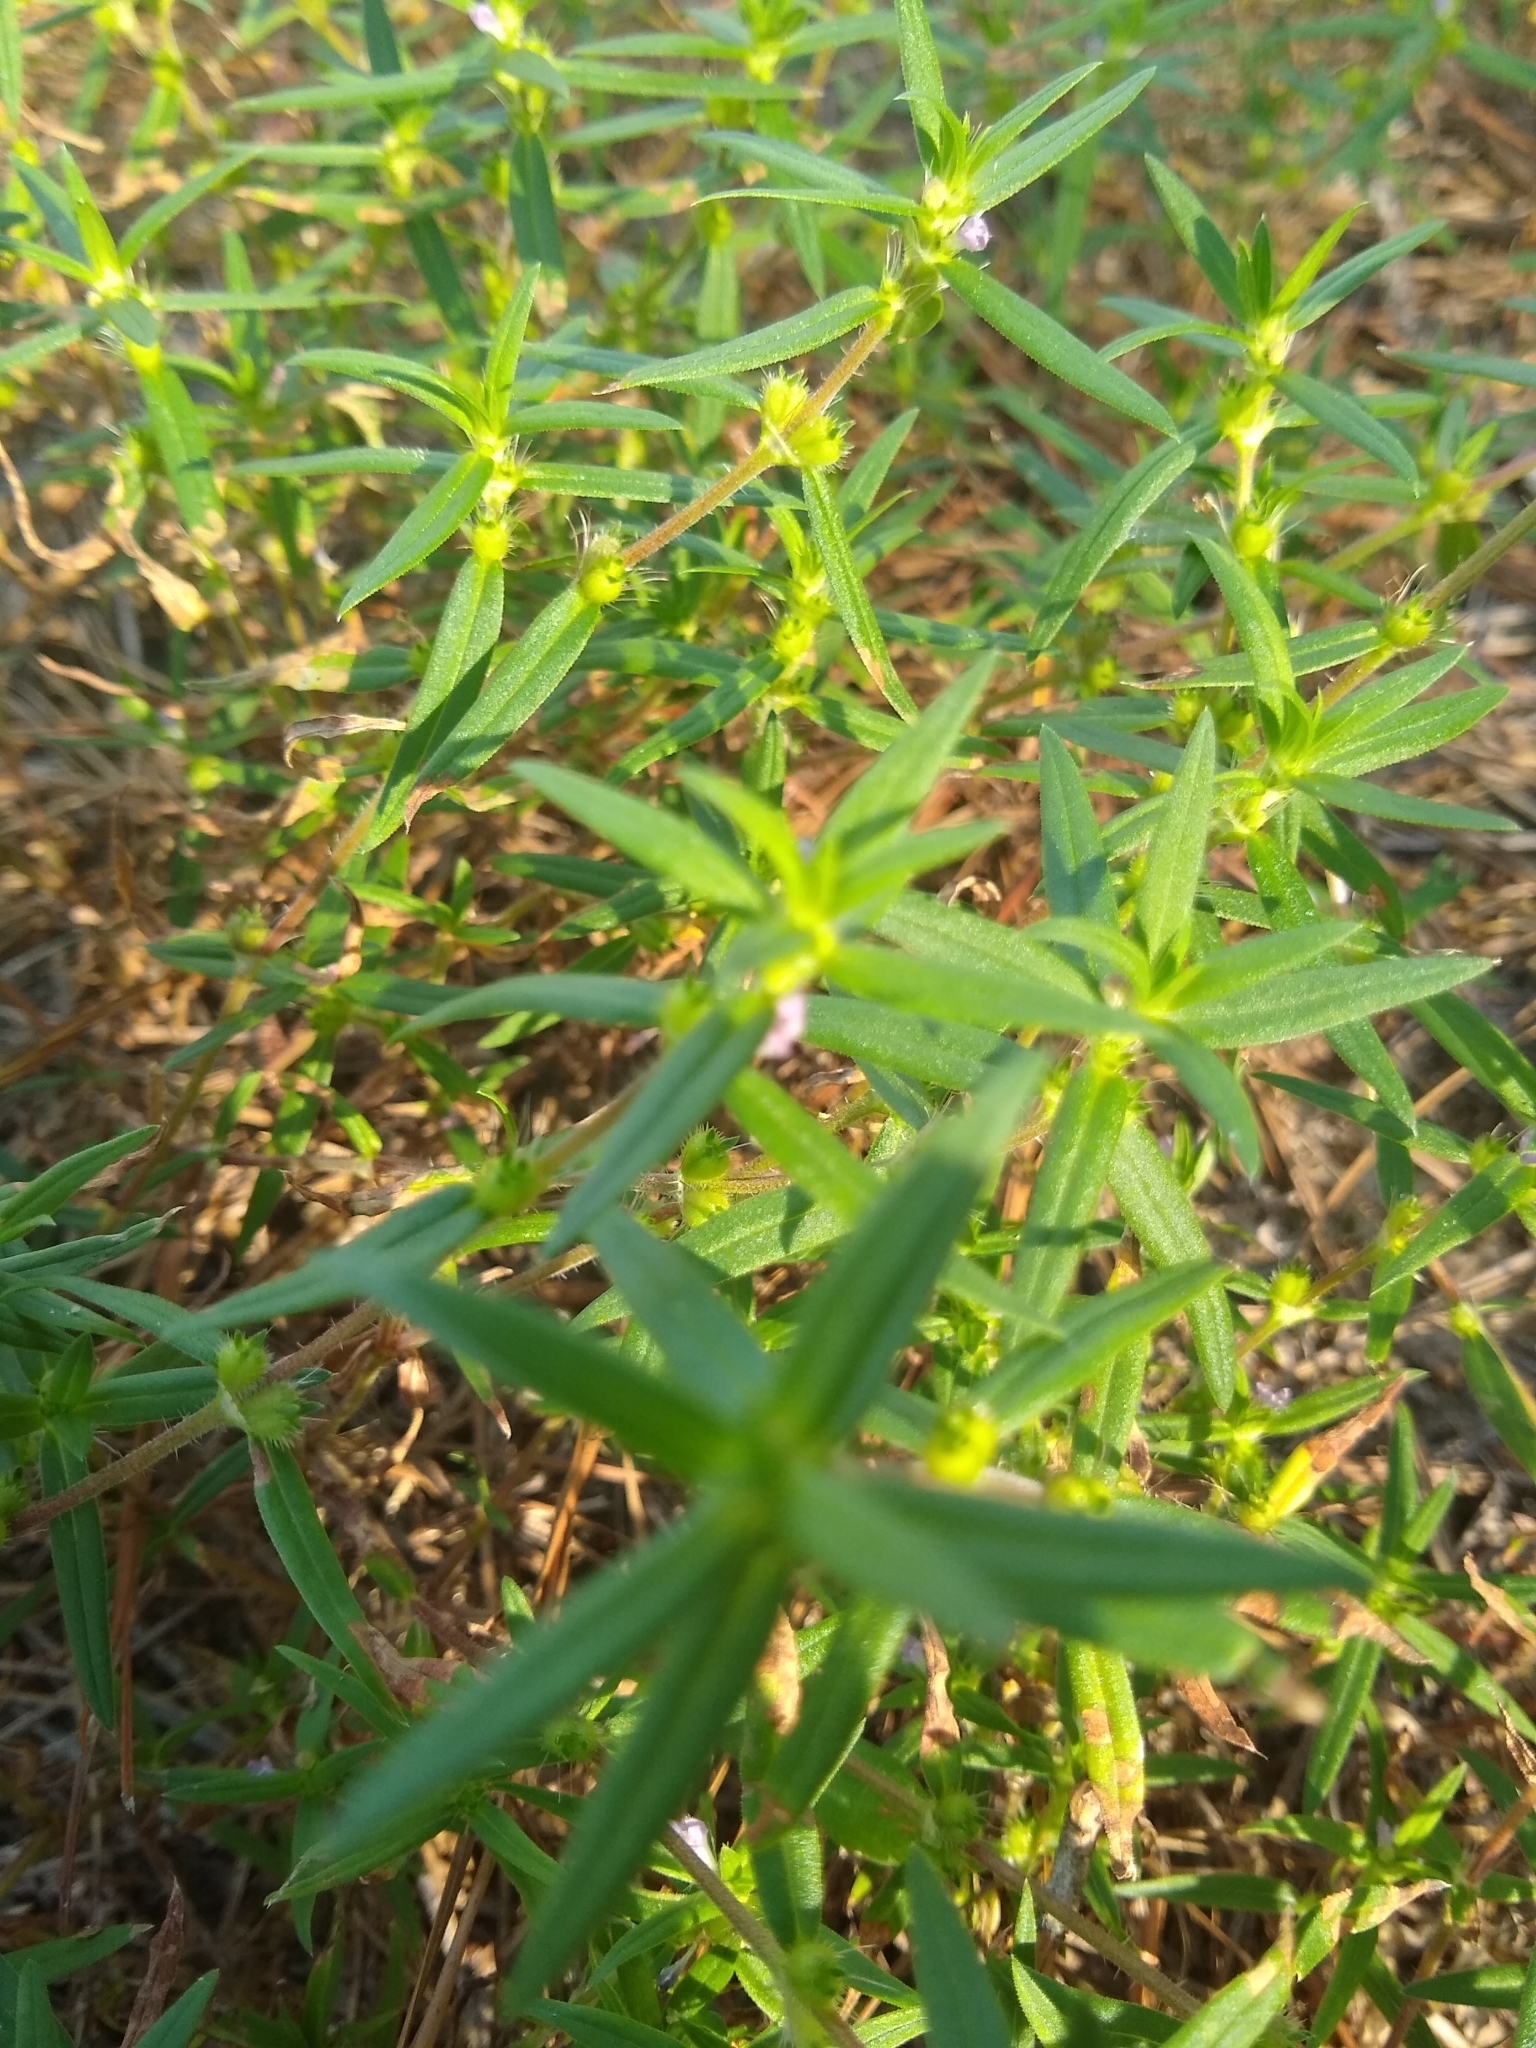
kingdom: Plantae
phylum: Tracheophyta
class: Magnoliopsida
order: Gentianales
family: Rubiaceae
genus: Hexasepalum
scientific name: Hexasepalum teres
